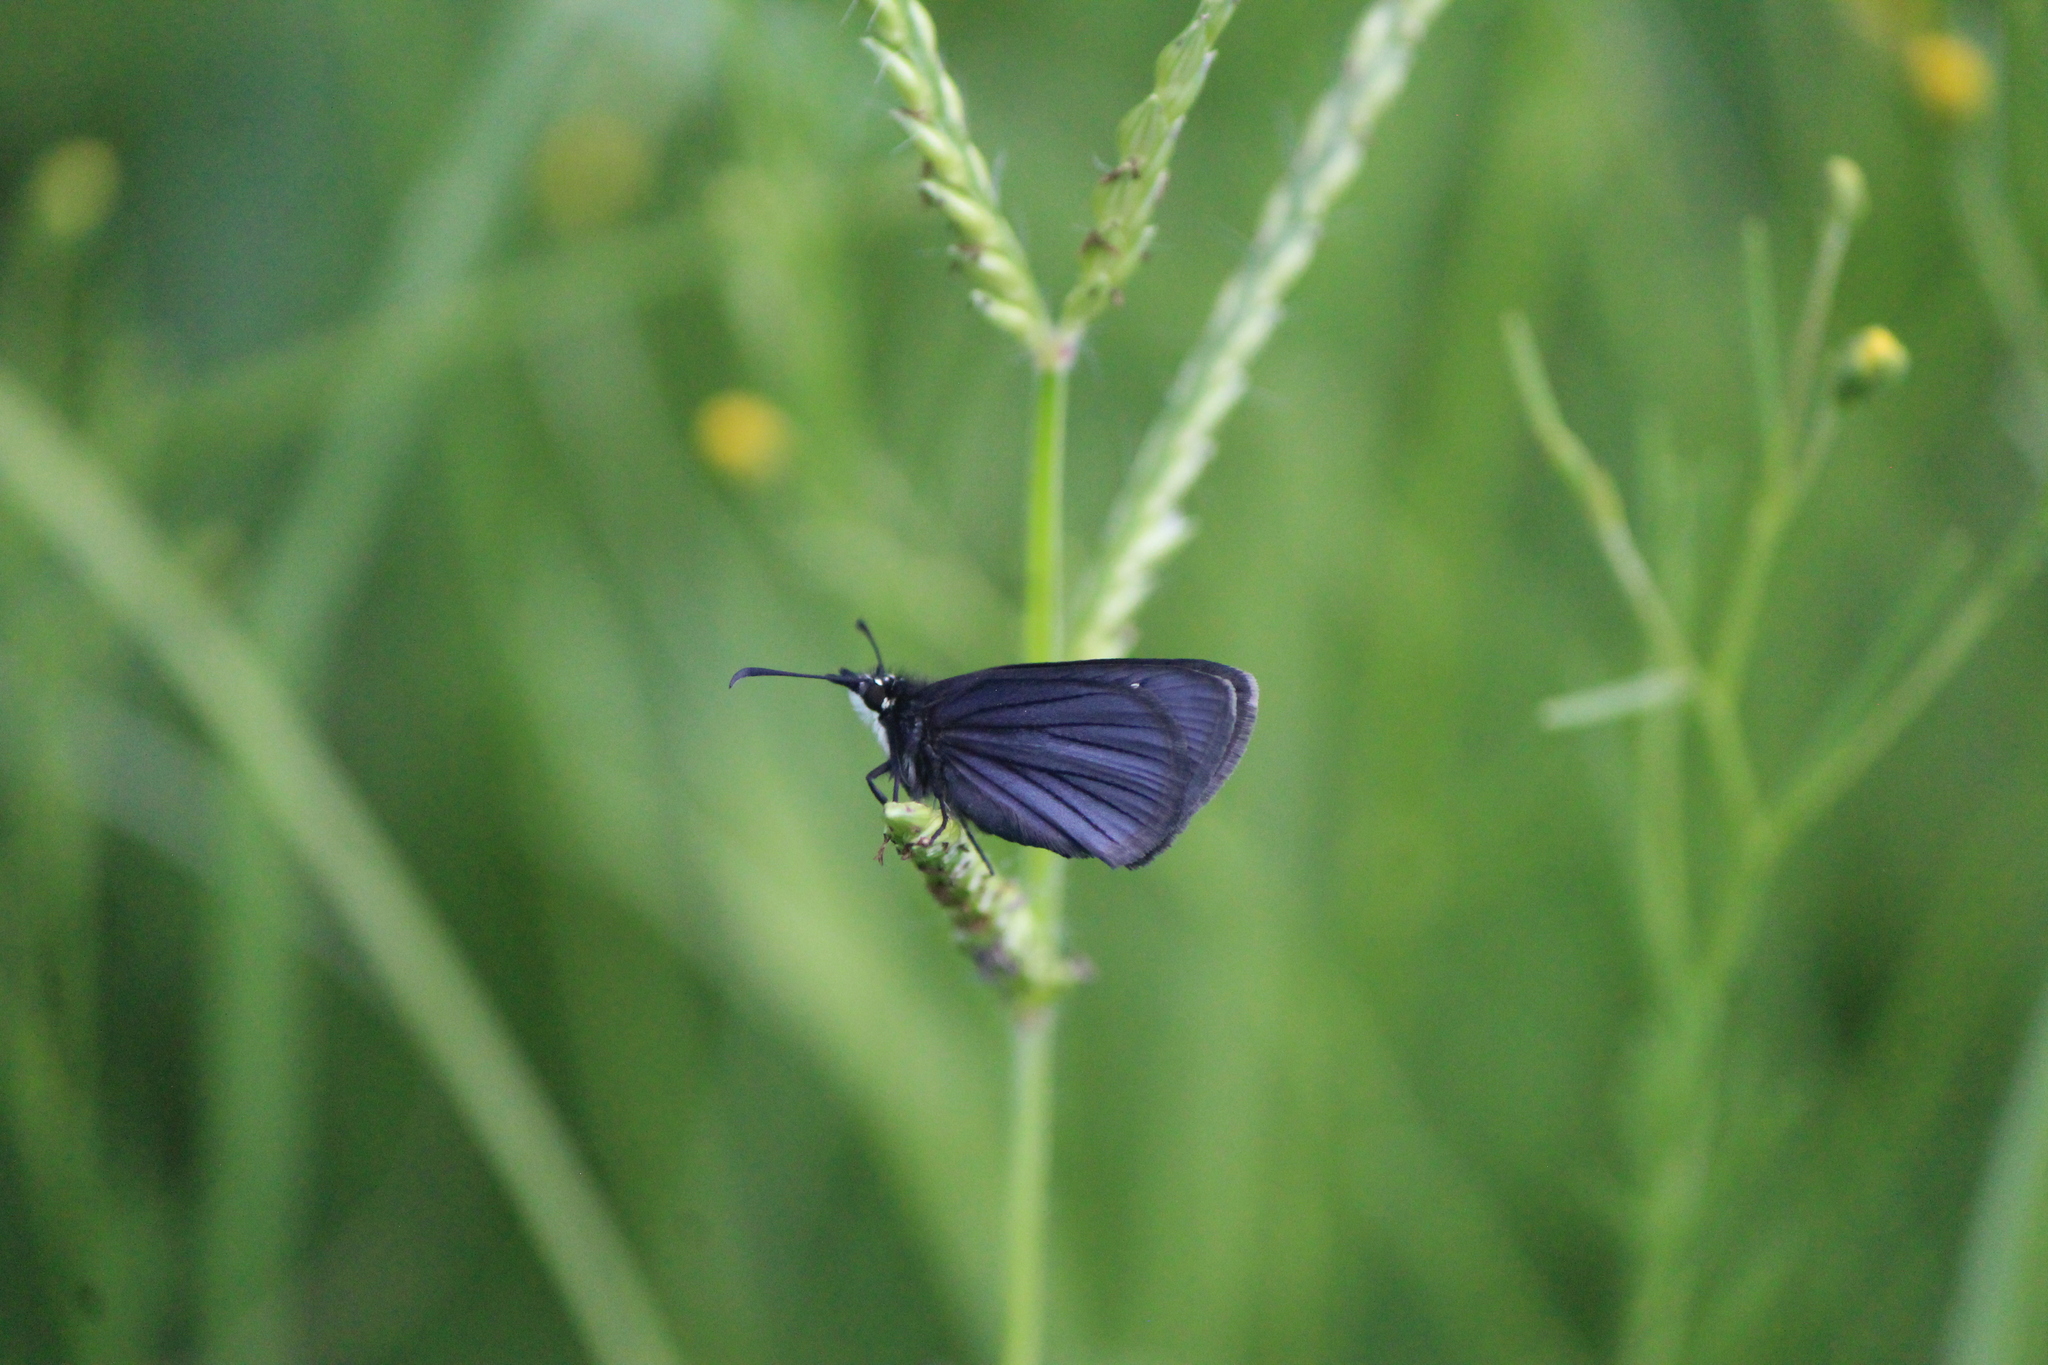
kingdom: Animalia
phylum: Arthropoda
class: Insecta
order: Lepidoptera
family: Hesperiidae
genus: Pholisora
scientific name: Pholisora mejicanus
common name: Mexican sootywing
